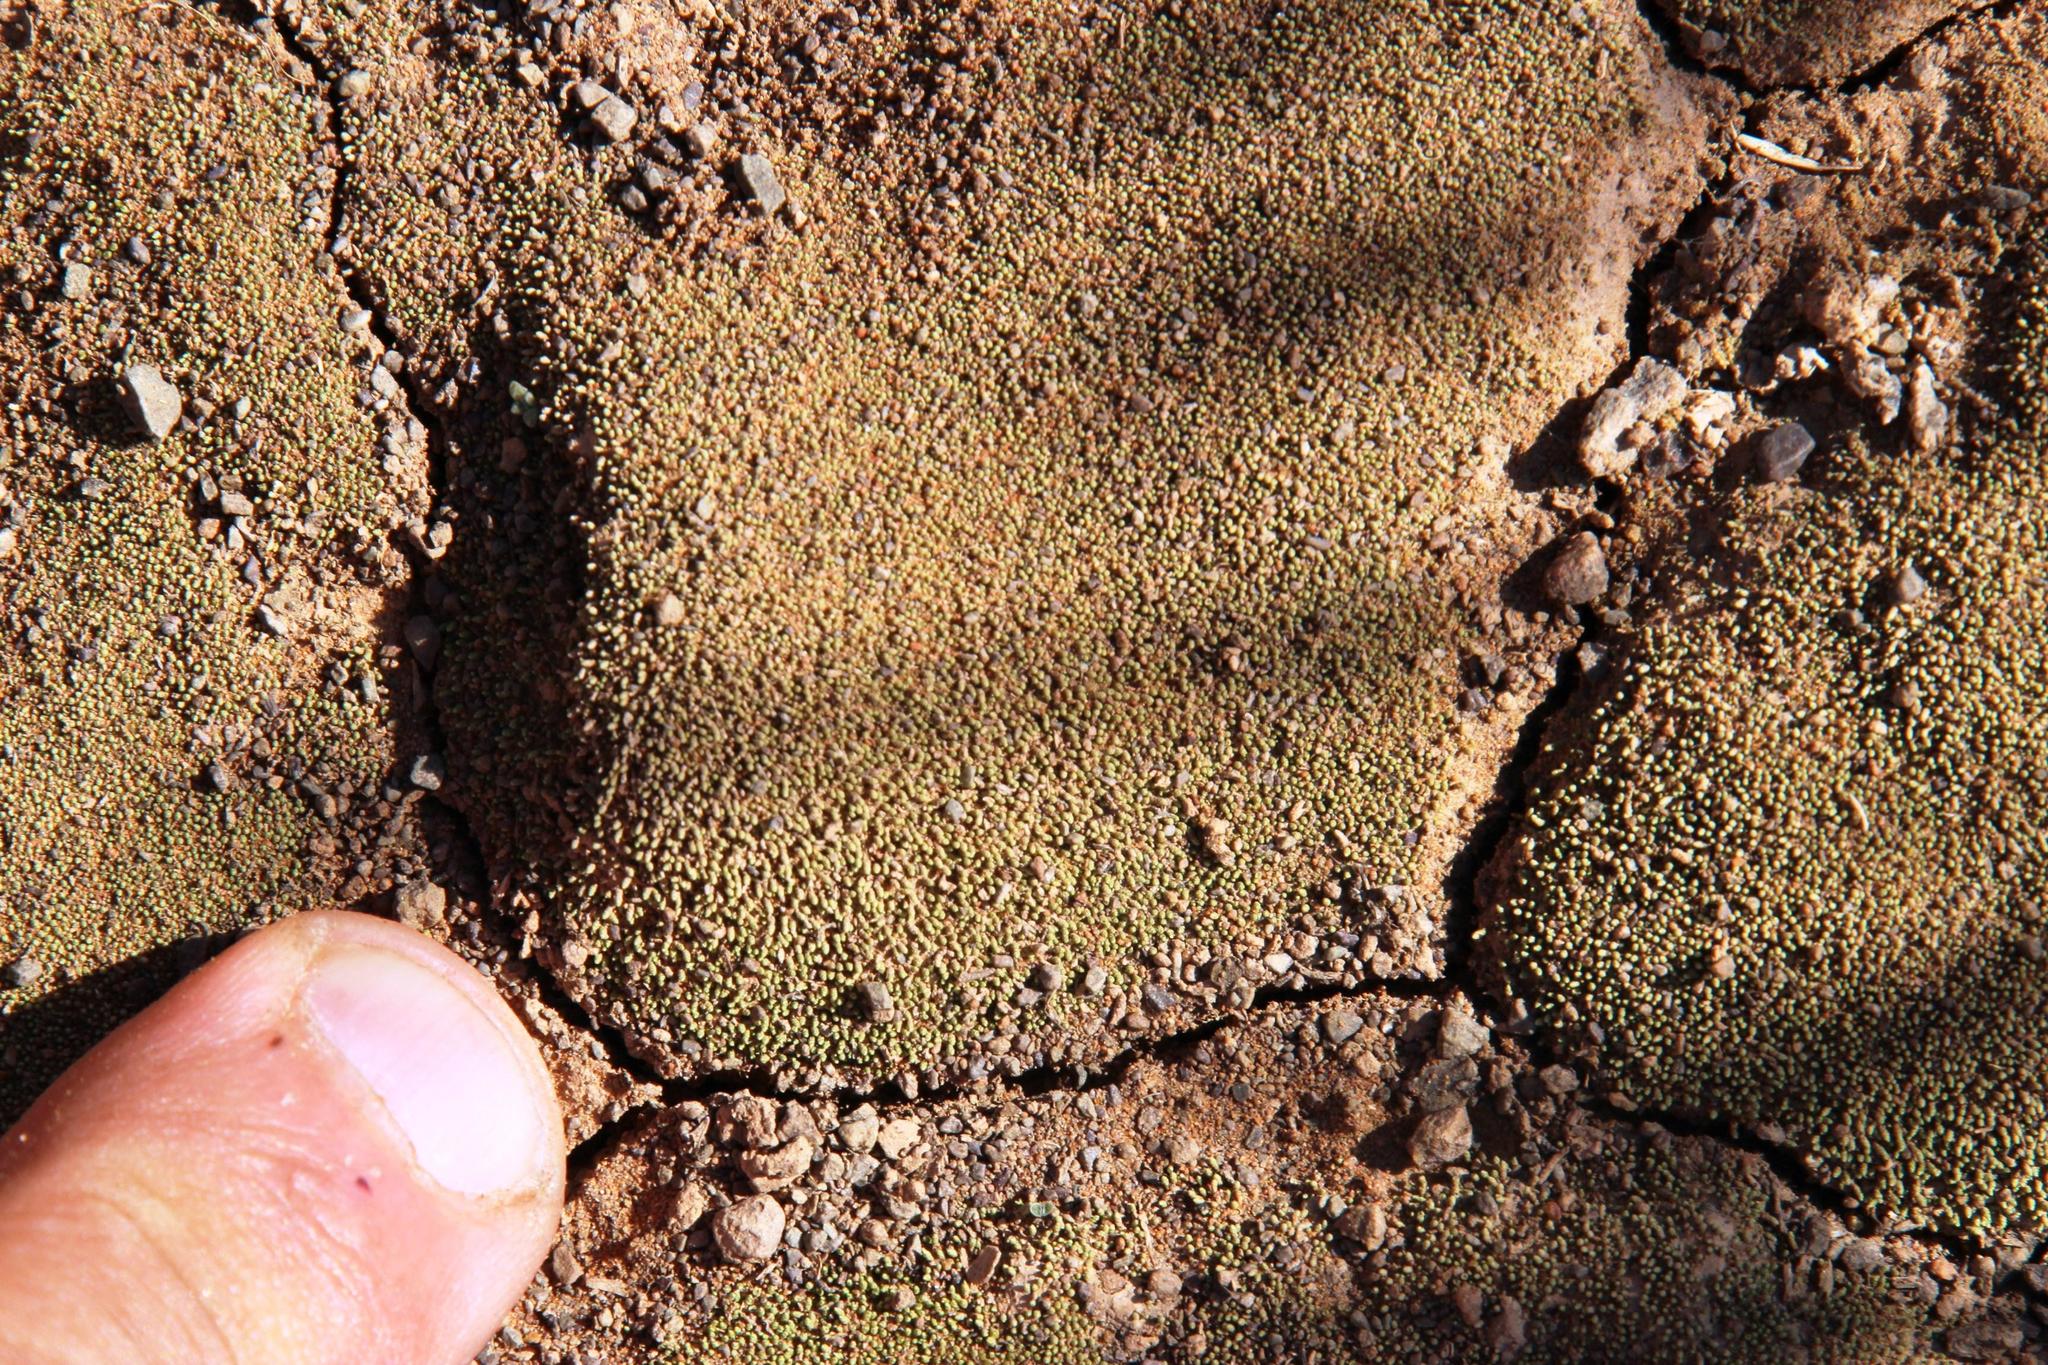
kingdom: Plantae
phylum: Bryophyta
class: Bryopsida
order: Dicranales
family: Fissidentaceae
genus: Fissidens
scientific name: Fissidens megalotis
